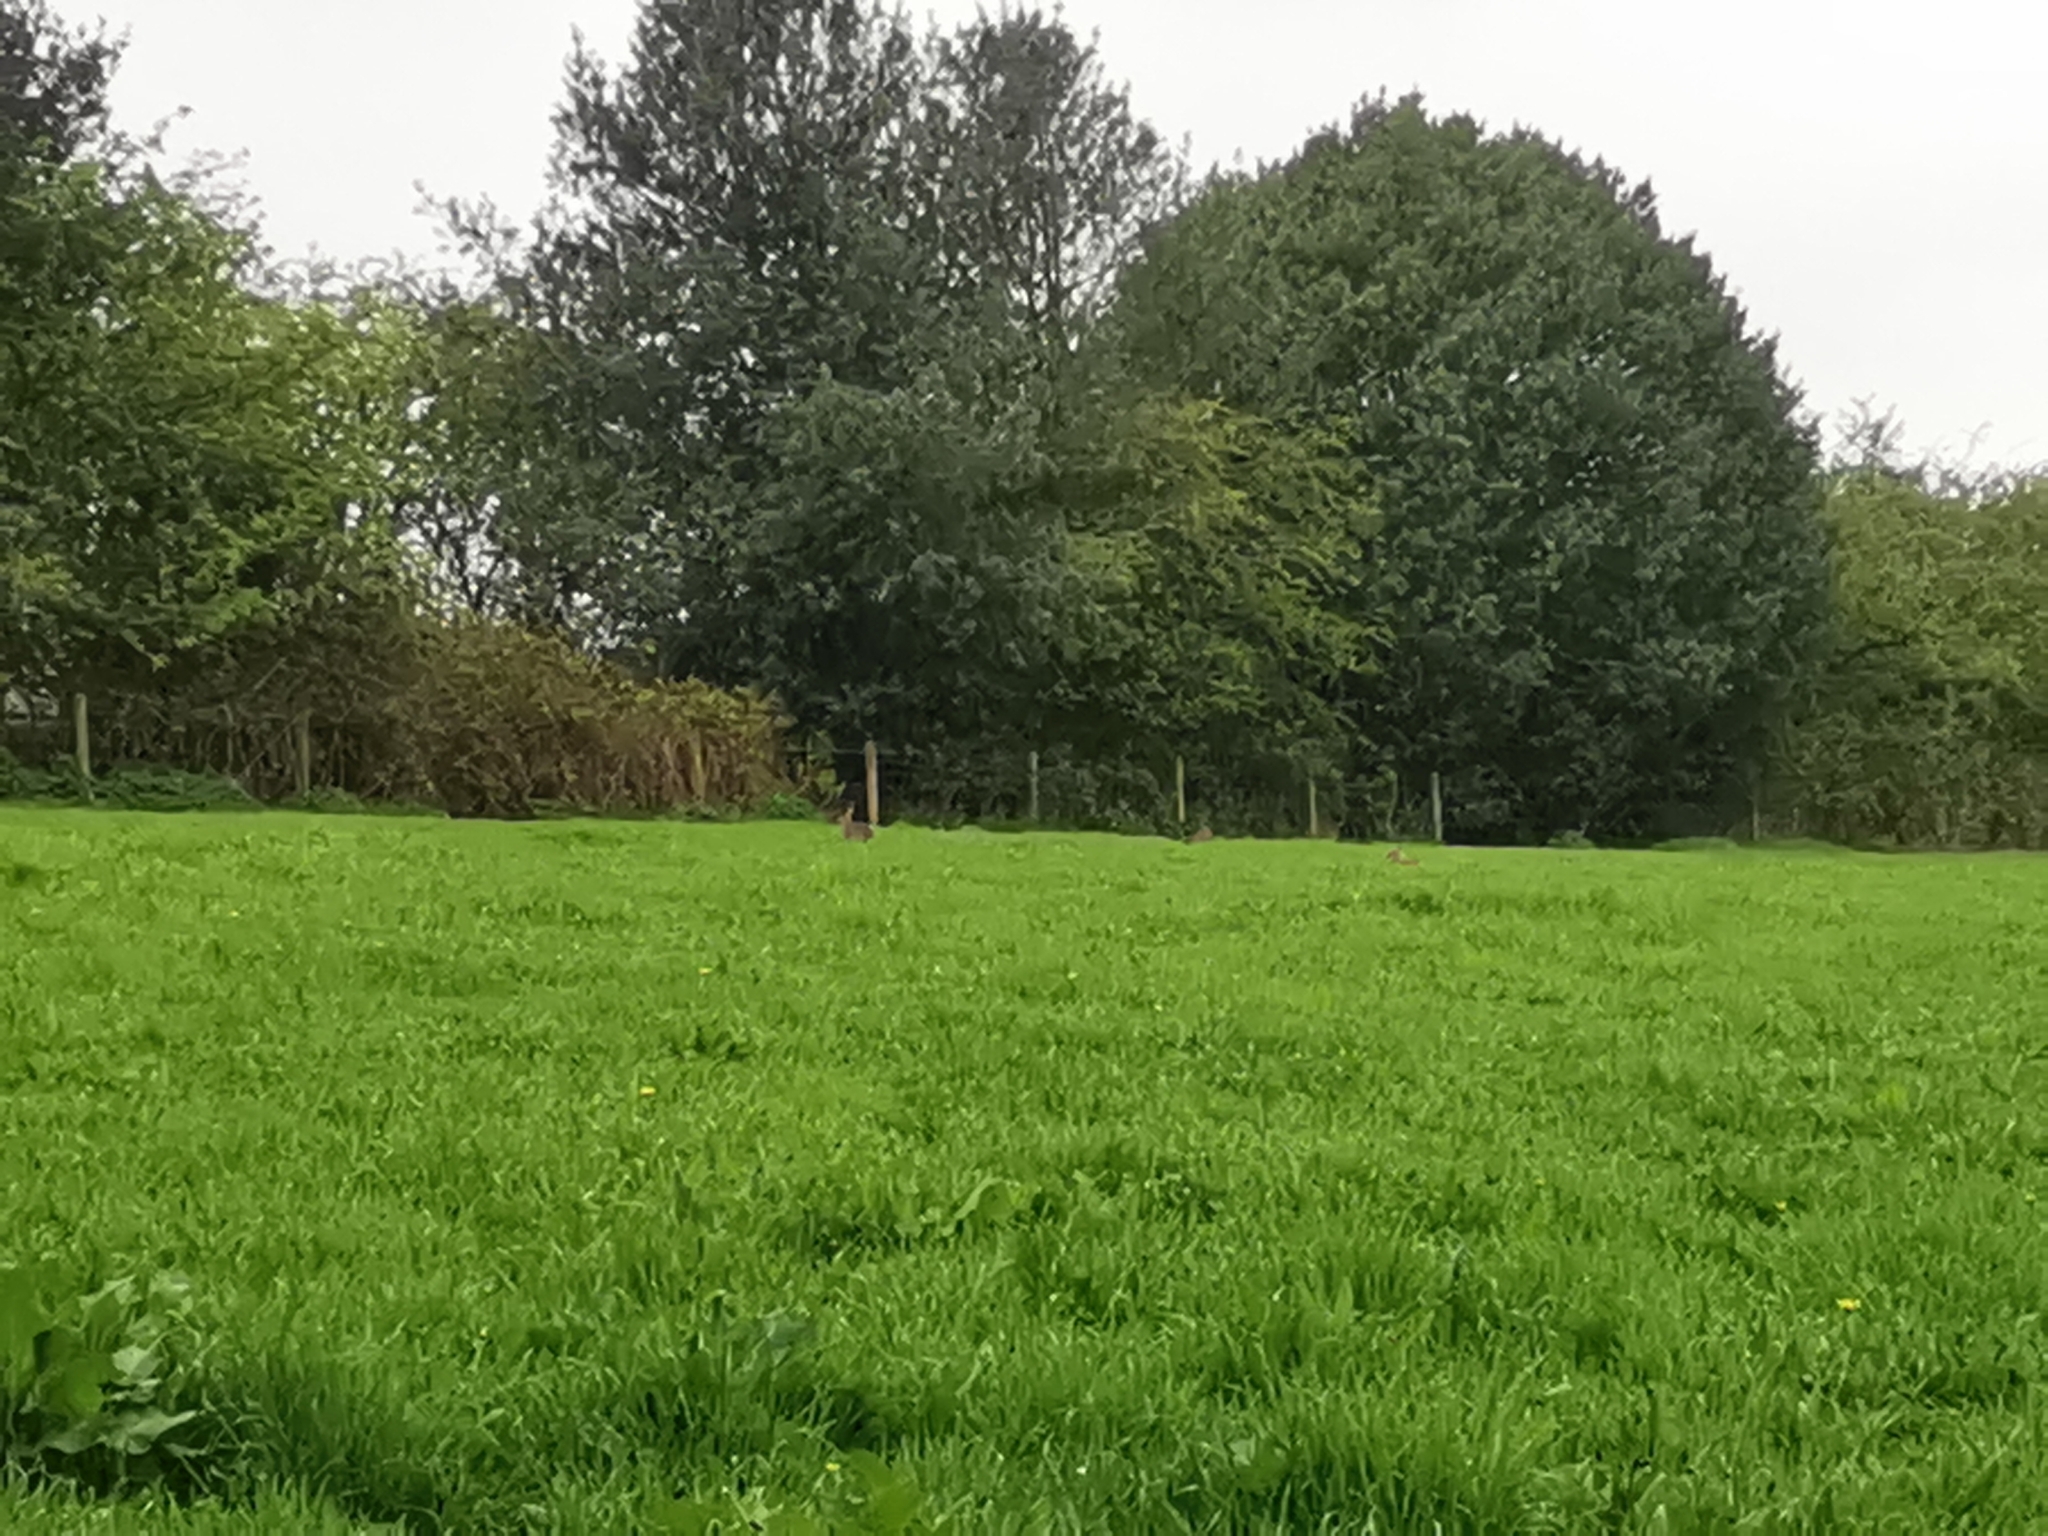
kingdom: Animalia
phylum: Chordata
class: Mammalia
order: Lagomorpha
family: Leporidae
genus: Oryctolagus
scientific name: Oryctolagus cuniculus
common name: European rabbit
